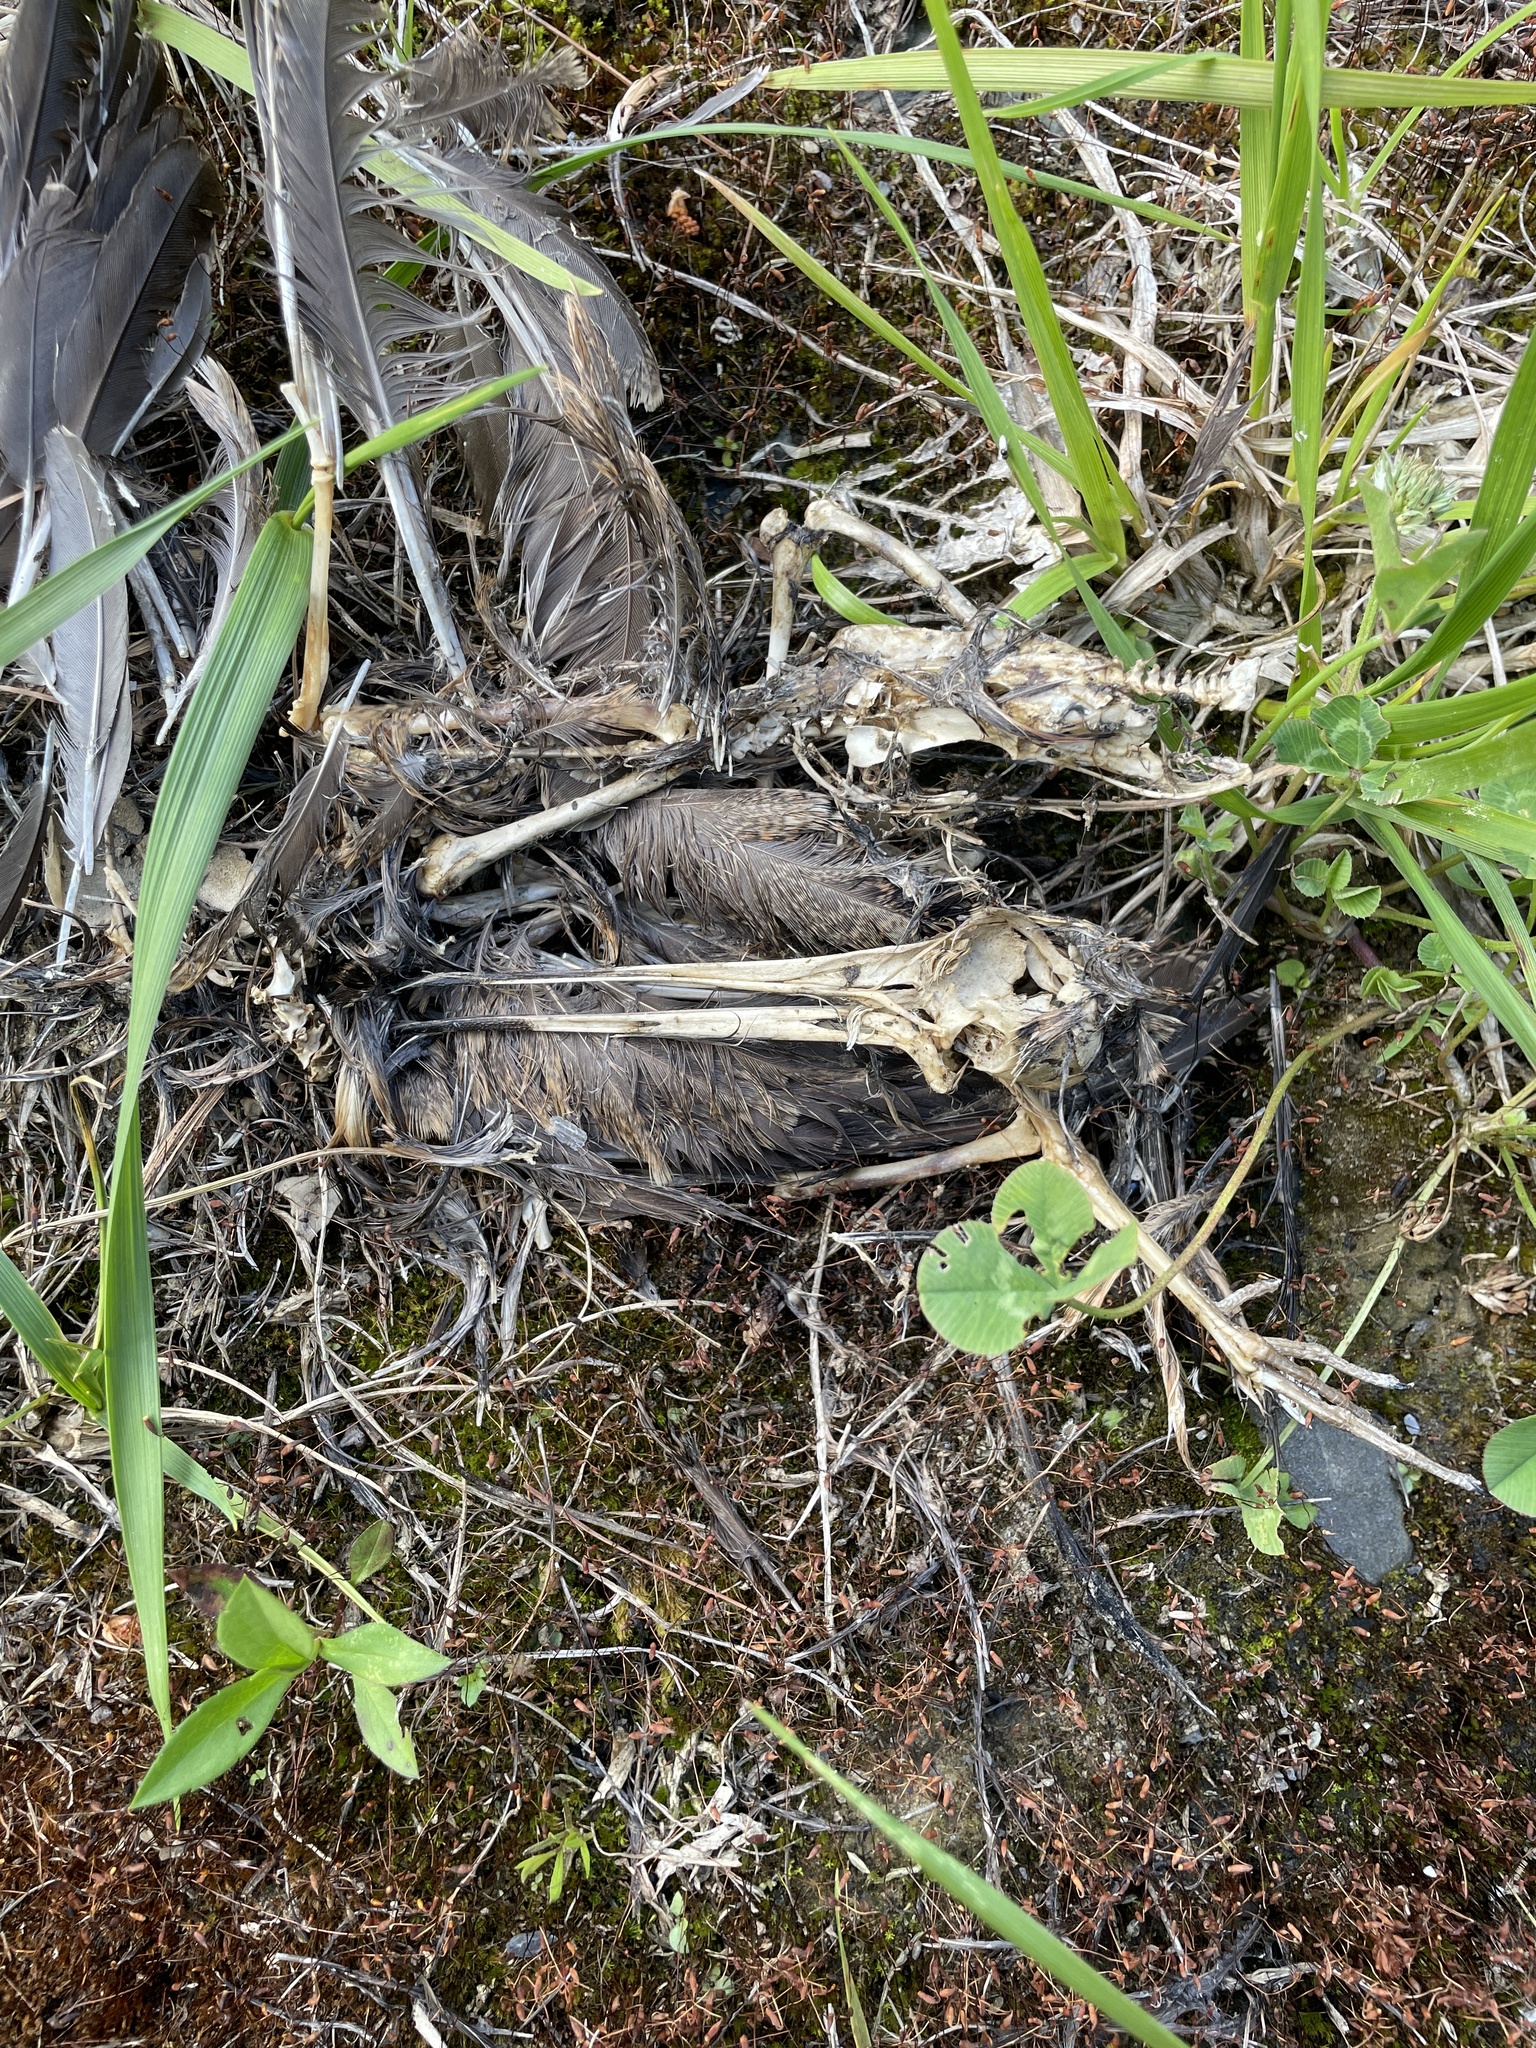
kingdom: Animalia
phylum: Chordata
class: Aves
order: Charadriiformes
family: Scolopacidae
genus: Scolopax
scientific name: Scolopax minor
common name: American woodcock
